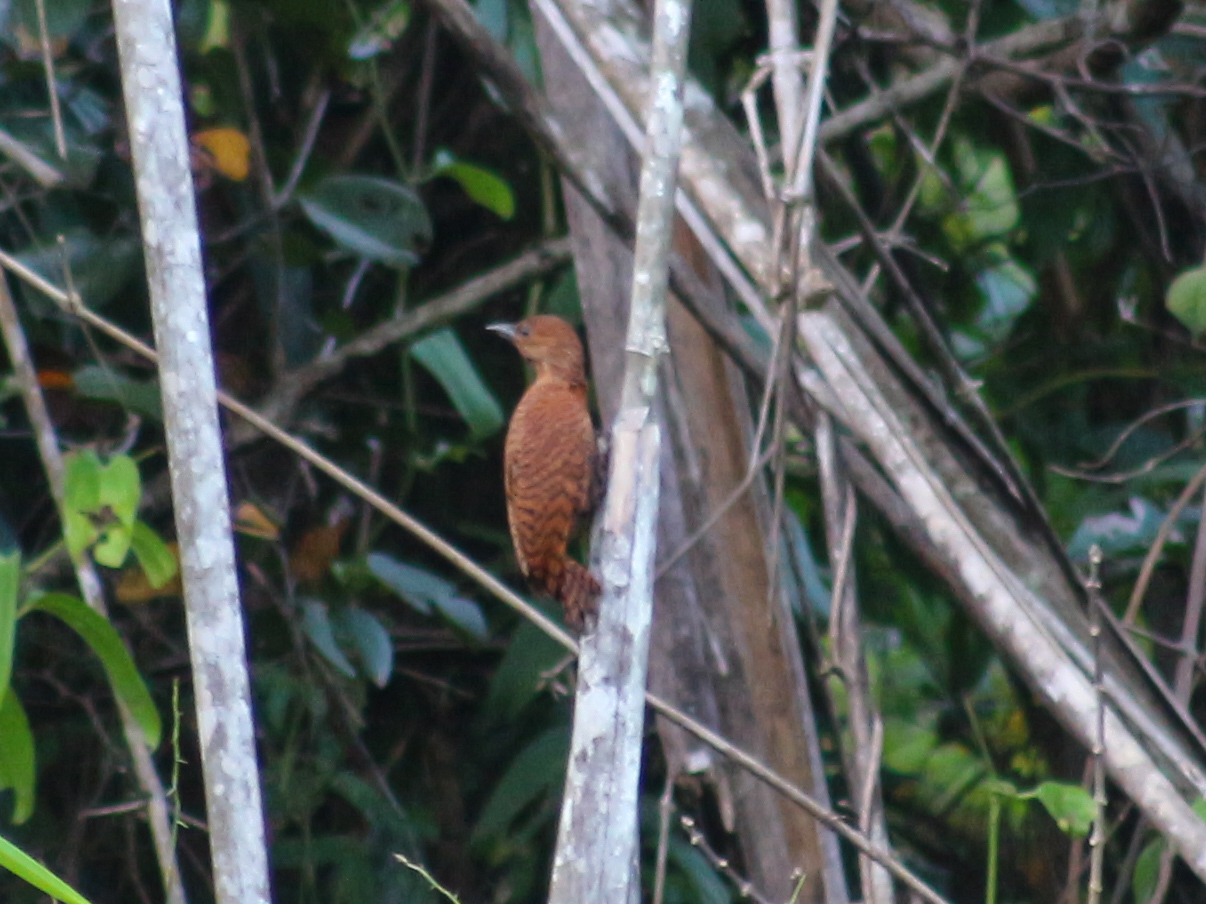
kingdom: Animalia
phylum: Chordata
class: Aves
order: Piciformes
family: Picidae
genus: Micropternus
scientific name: Micropternus brachyurus
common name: Rufous woodpecker
